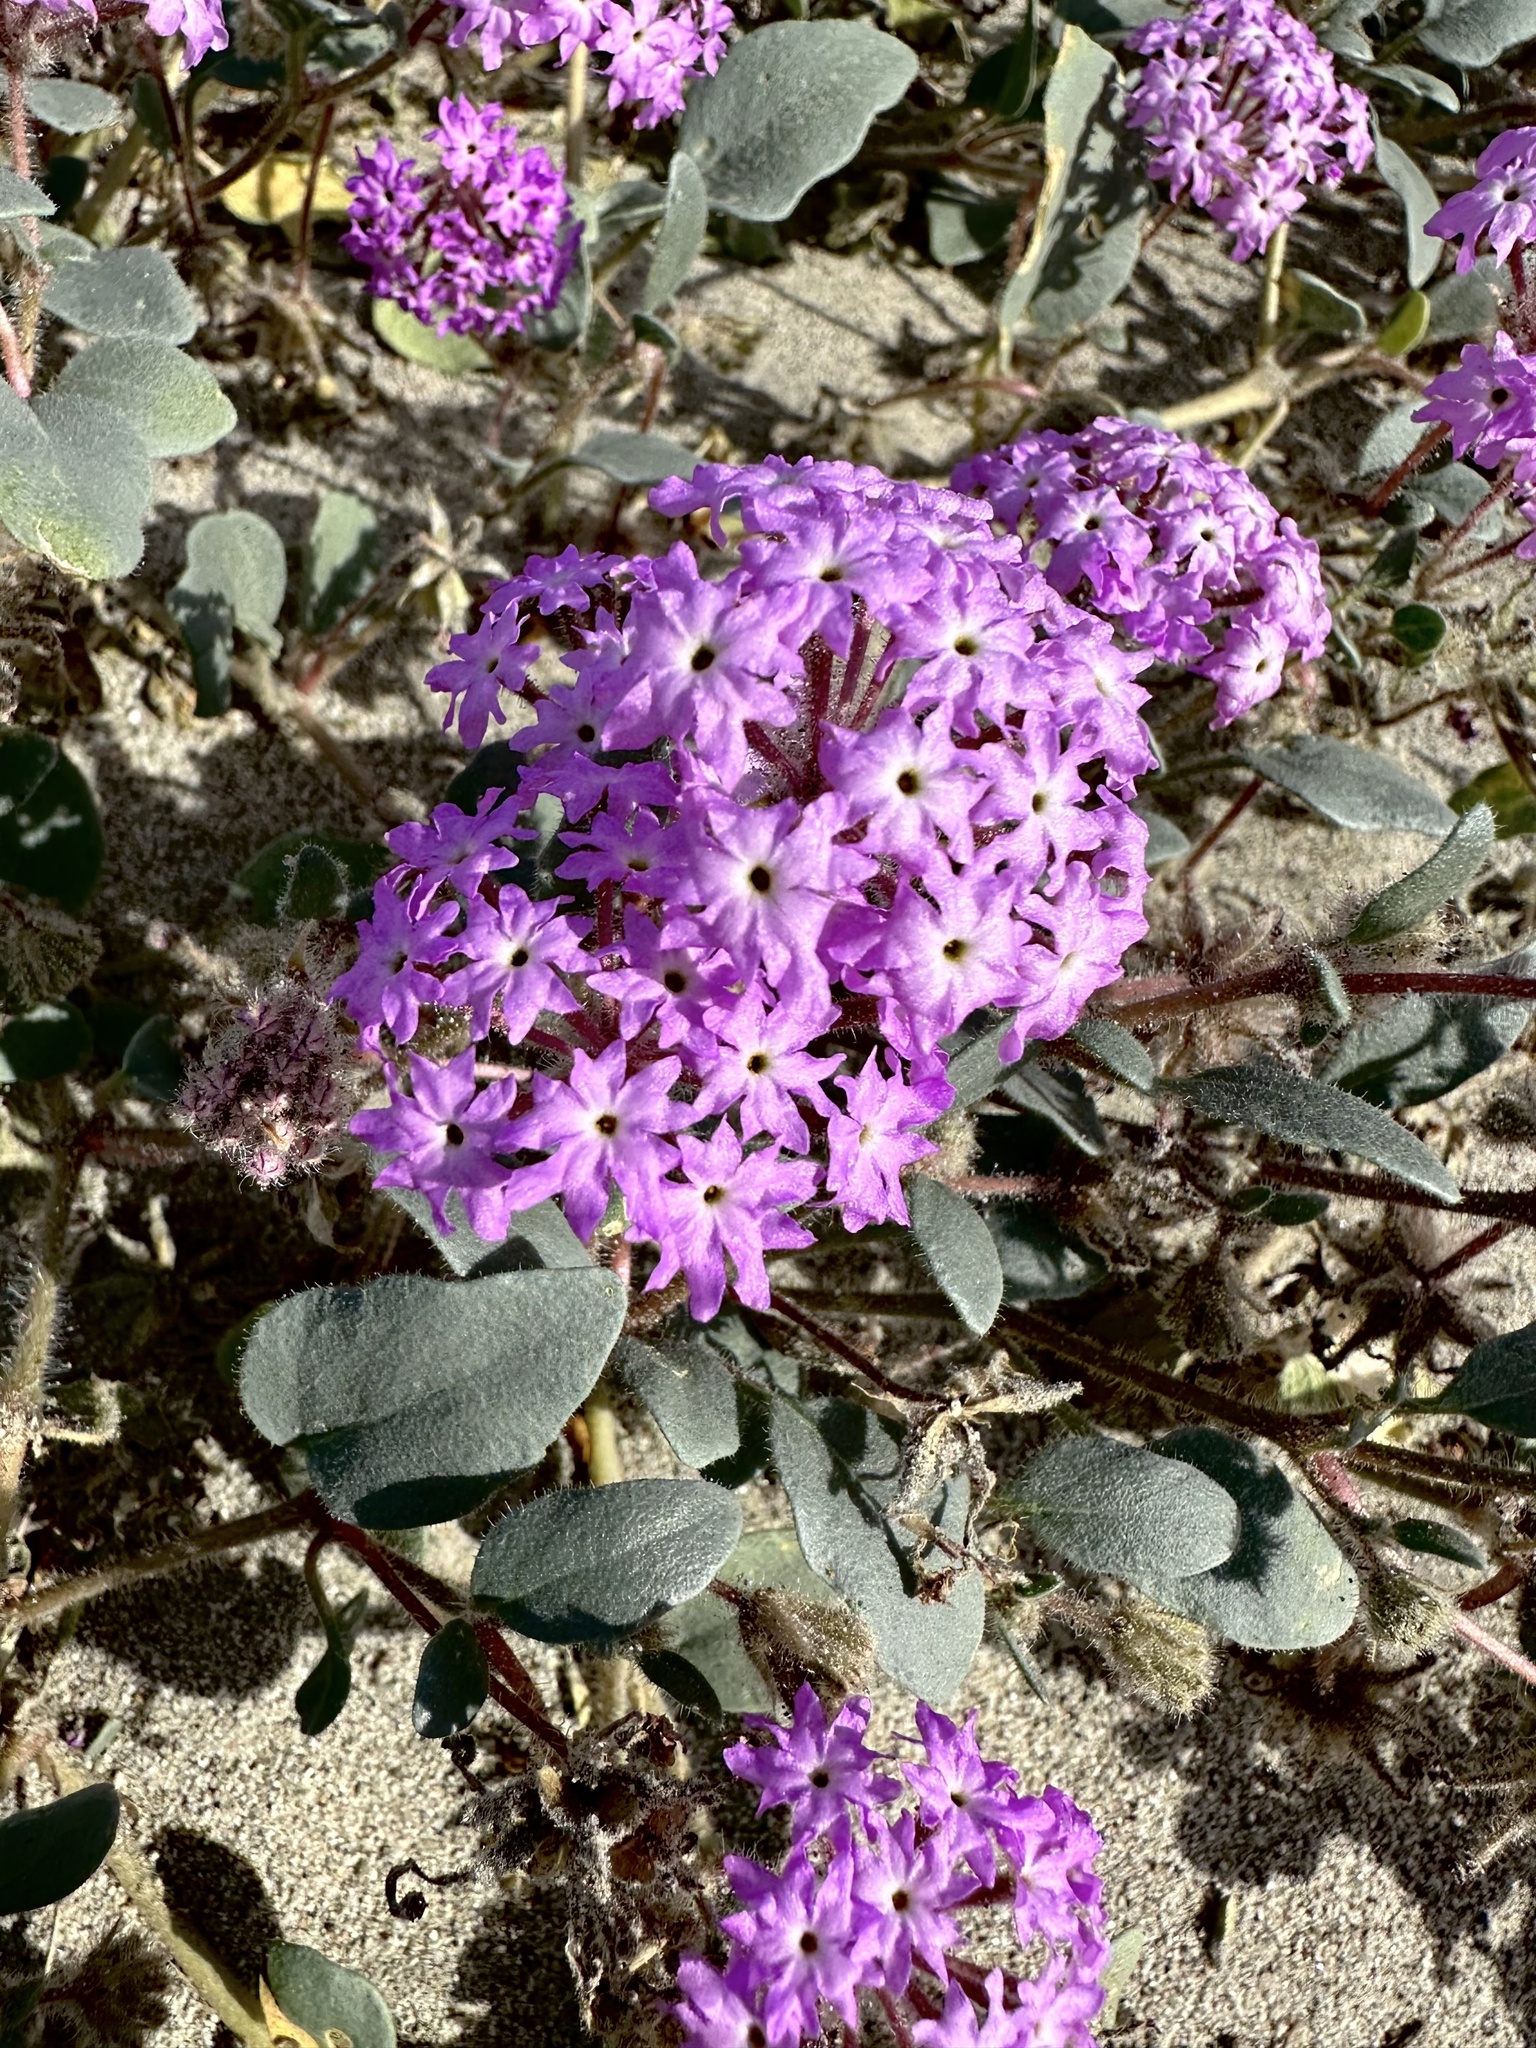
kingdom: Plantae
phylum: Tracheophyta
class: Magnoliopsida
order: Caryophyllales
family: Nyctaginaceae
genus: Abronia
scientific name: Abronia villosa
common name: Desert sand-verbena
